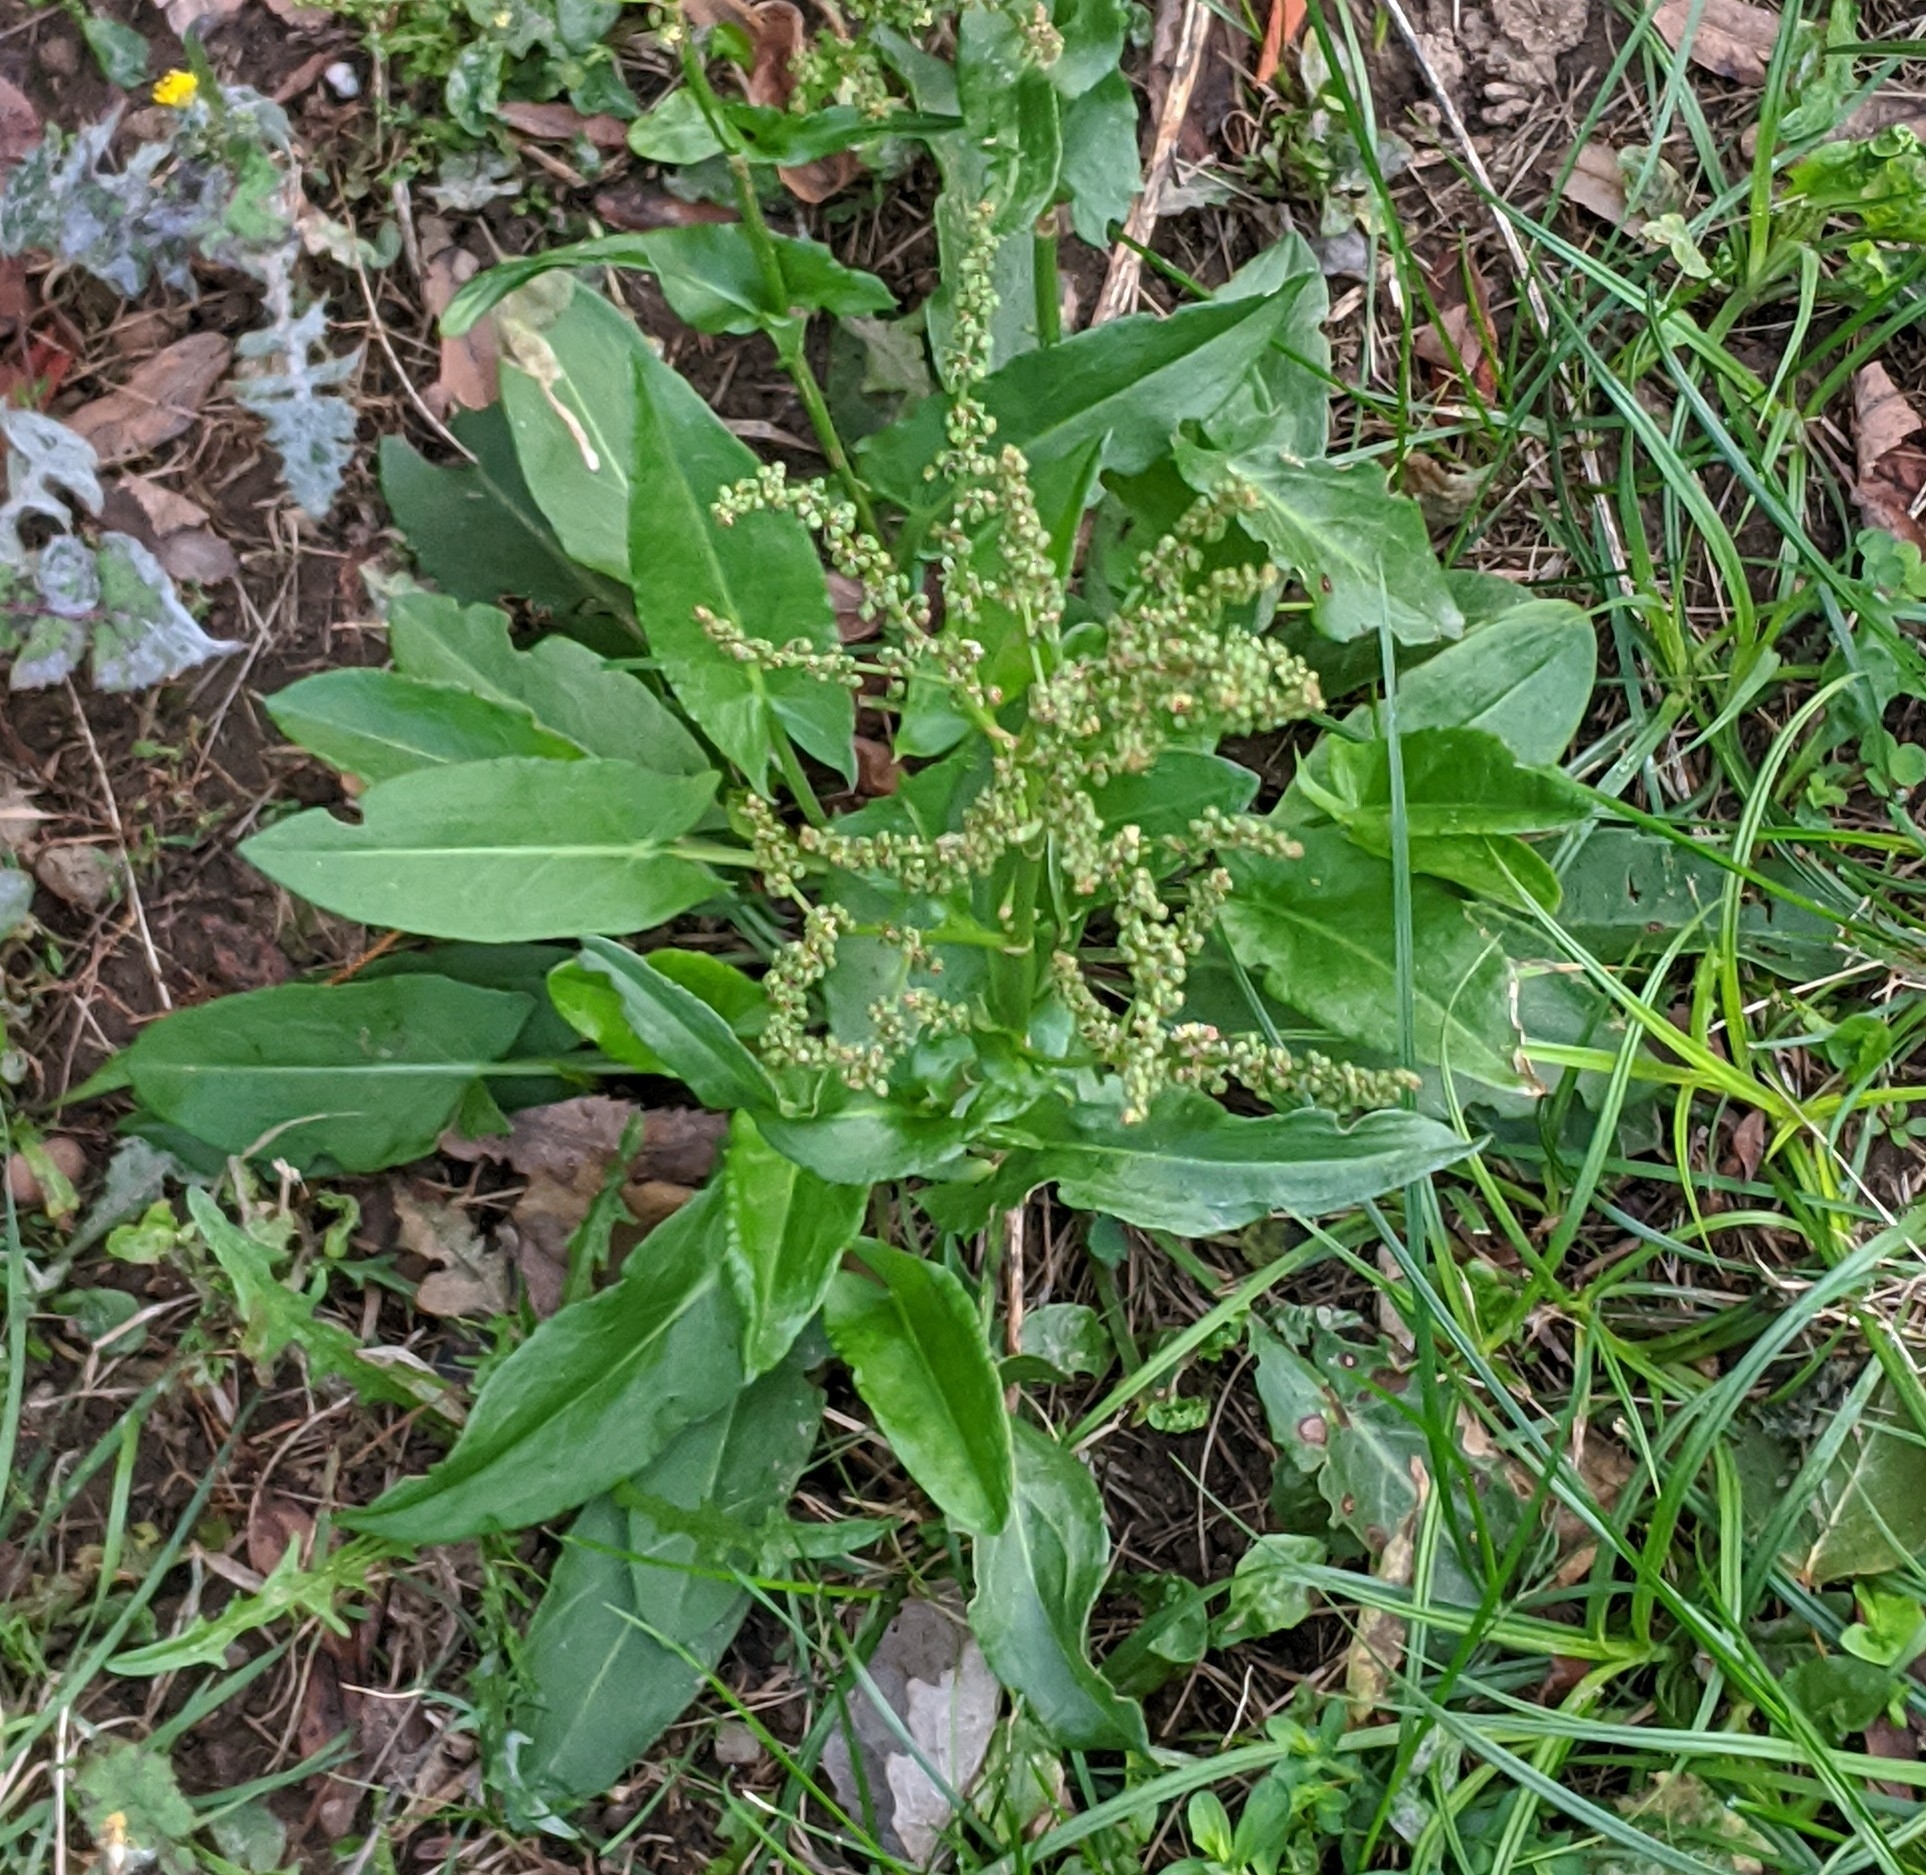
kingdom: Plantae
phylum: Tracheophyta
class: Magnoliopsida
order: Caryophyllales
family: Polygonaceae
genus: Rumex
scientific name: Rumex acetosa
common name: Garden sorrel
